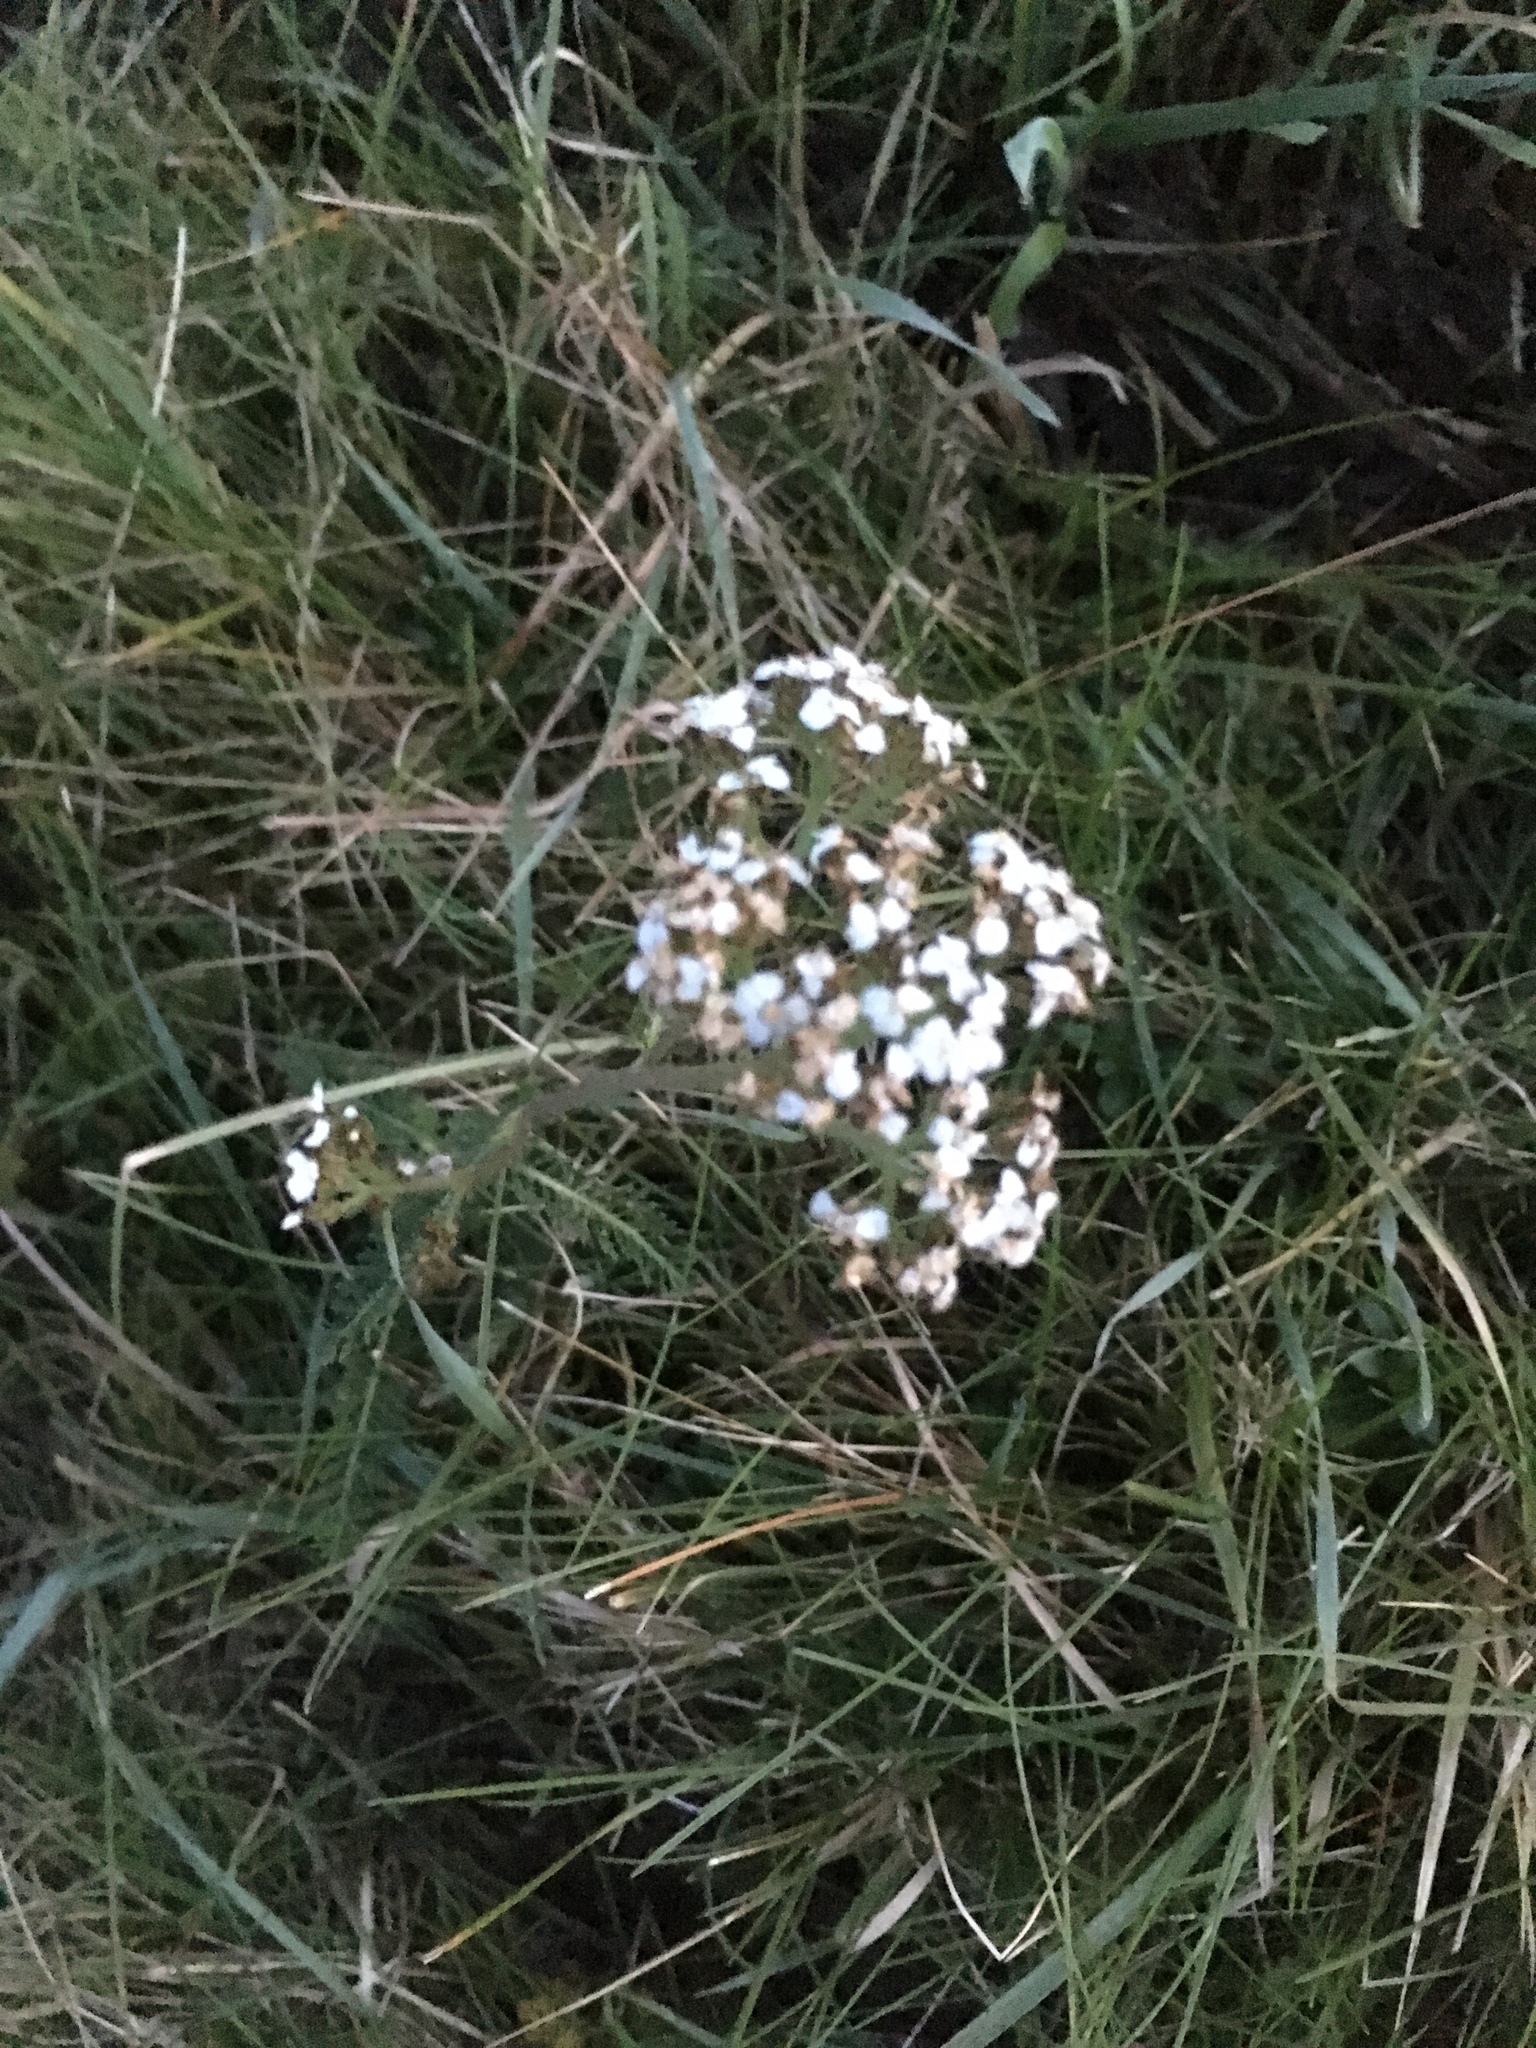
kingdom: Plantae
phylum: Tracheophyta
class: Magnoliopsida
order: Asterales
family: Asteraceae
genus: Achillea
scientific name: Achillea millefolium
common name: Yarrow
